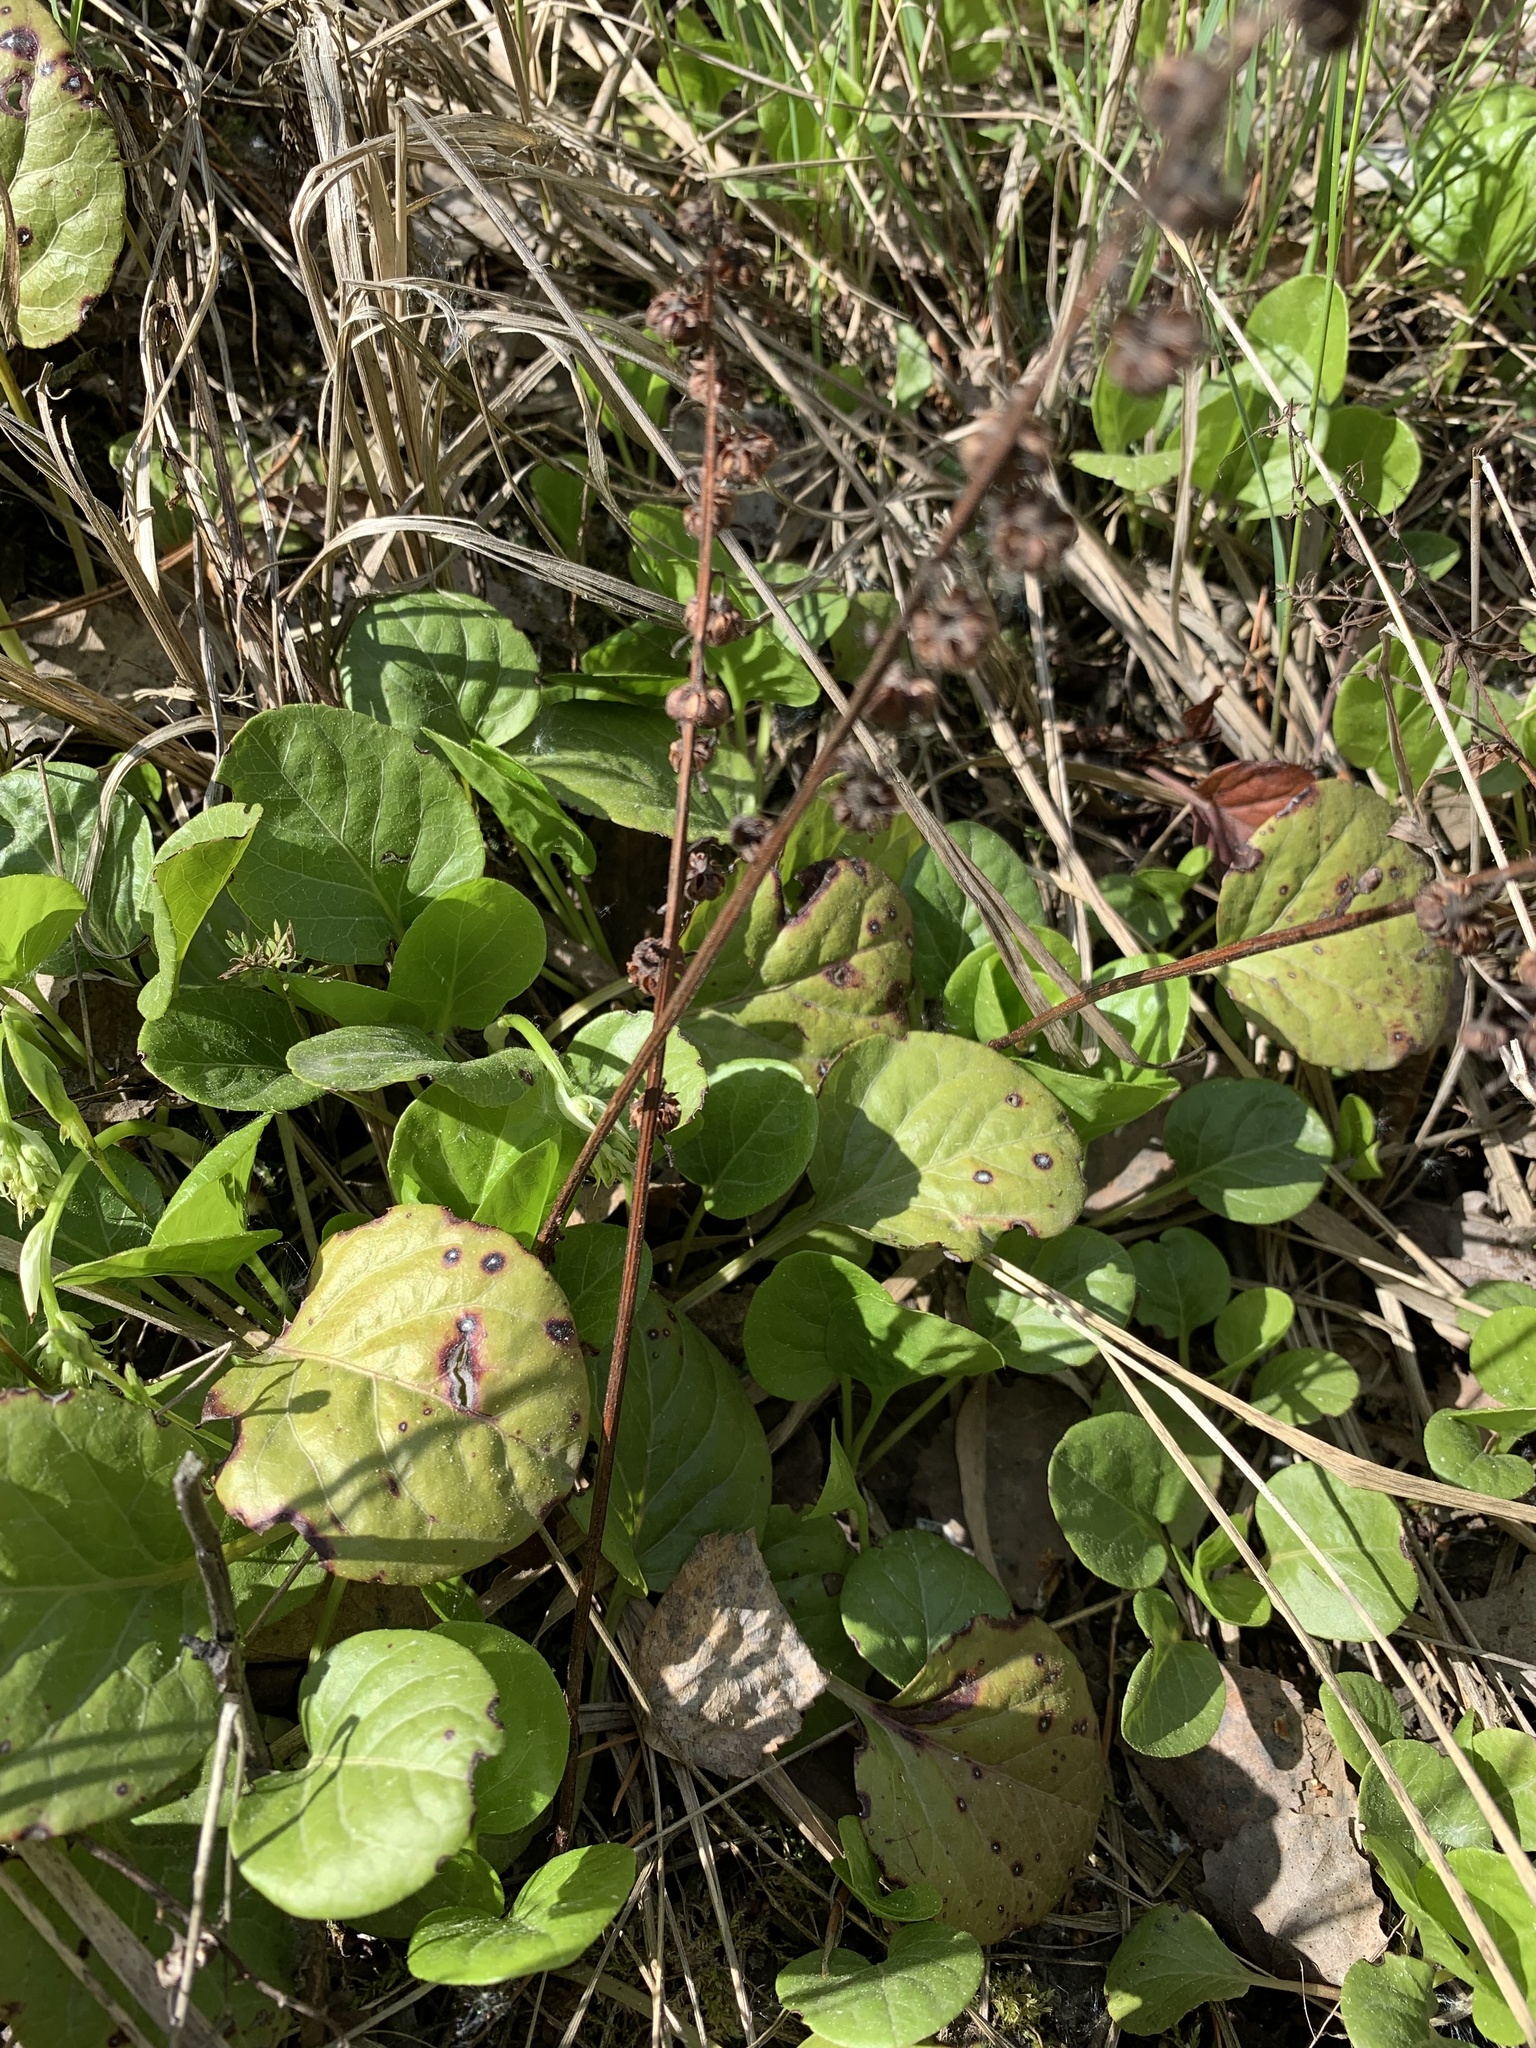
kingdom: Plantae
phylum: Tracheophyta
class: Magnoliopsida
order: Ericales
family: Ericaceae
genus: Pyrola
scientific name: Pyrola rotundifolia
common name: Round-leaved wintergreen
